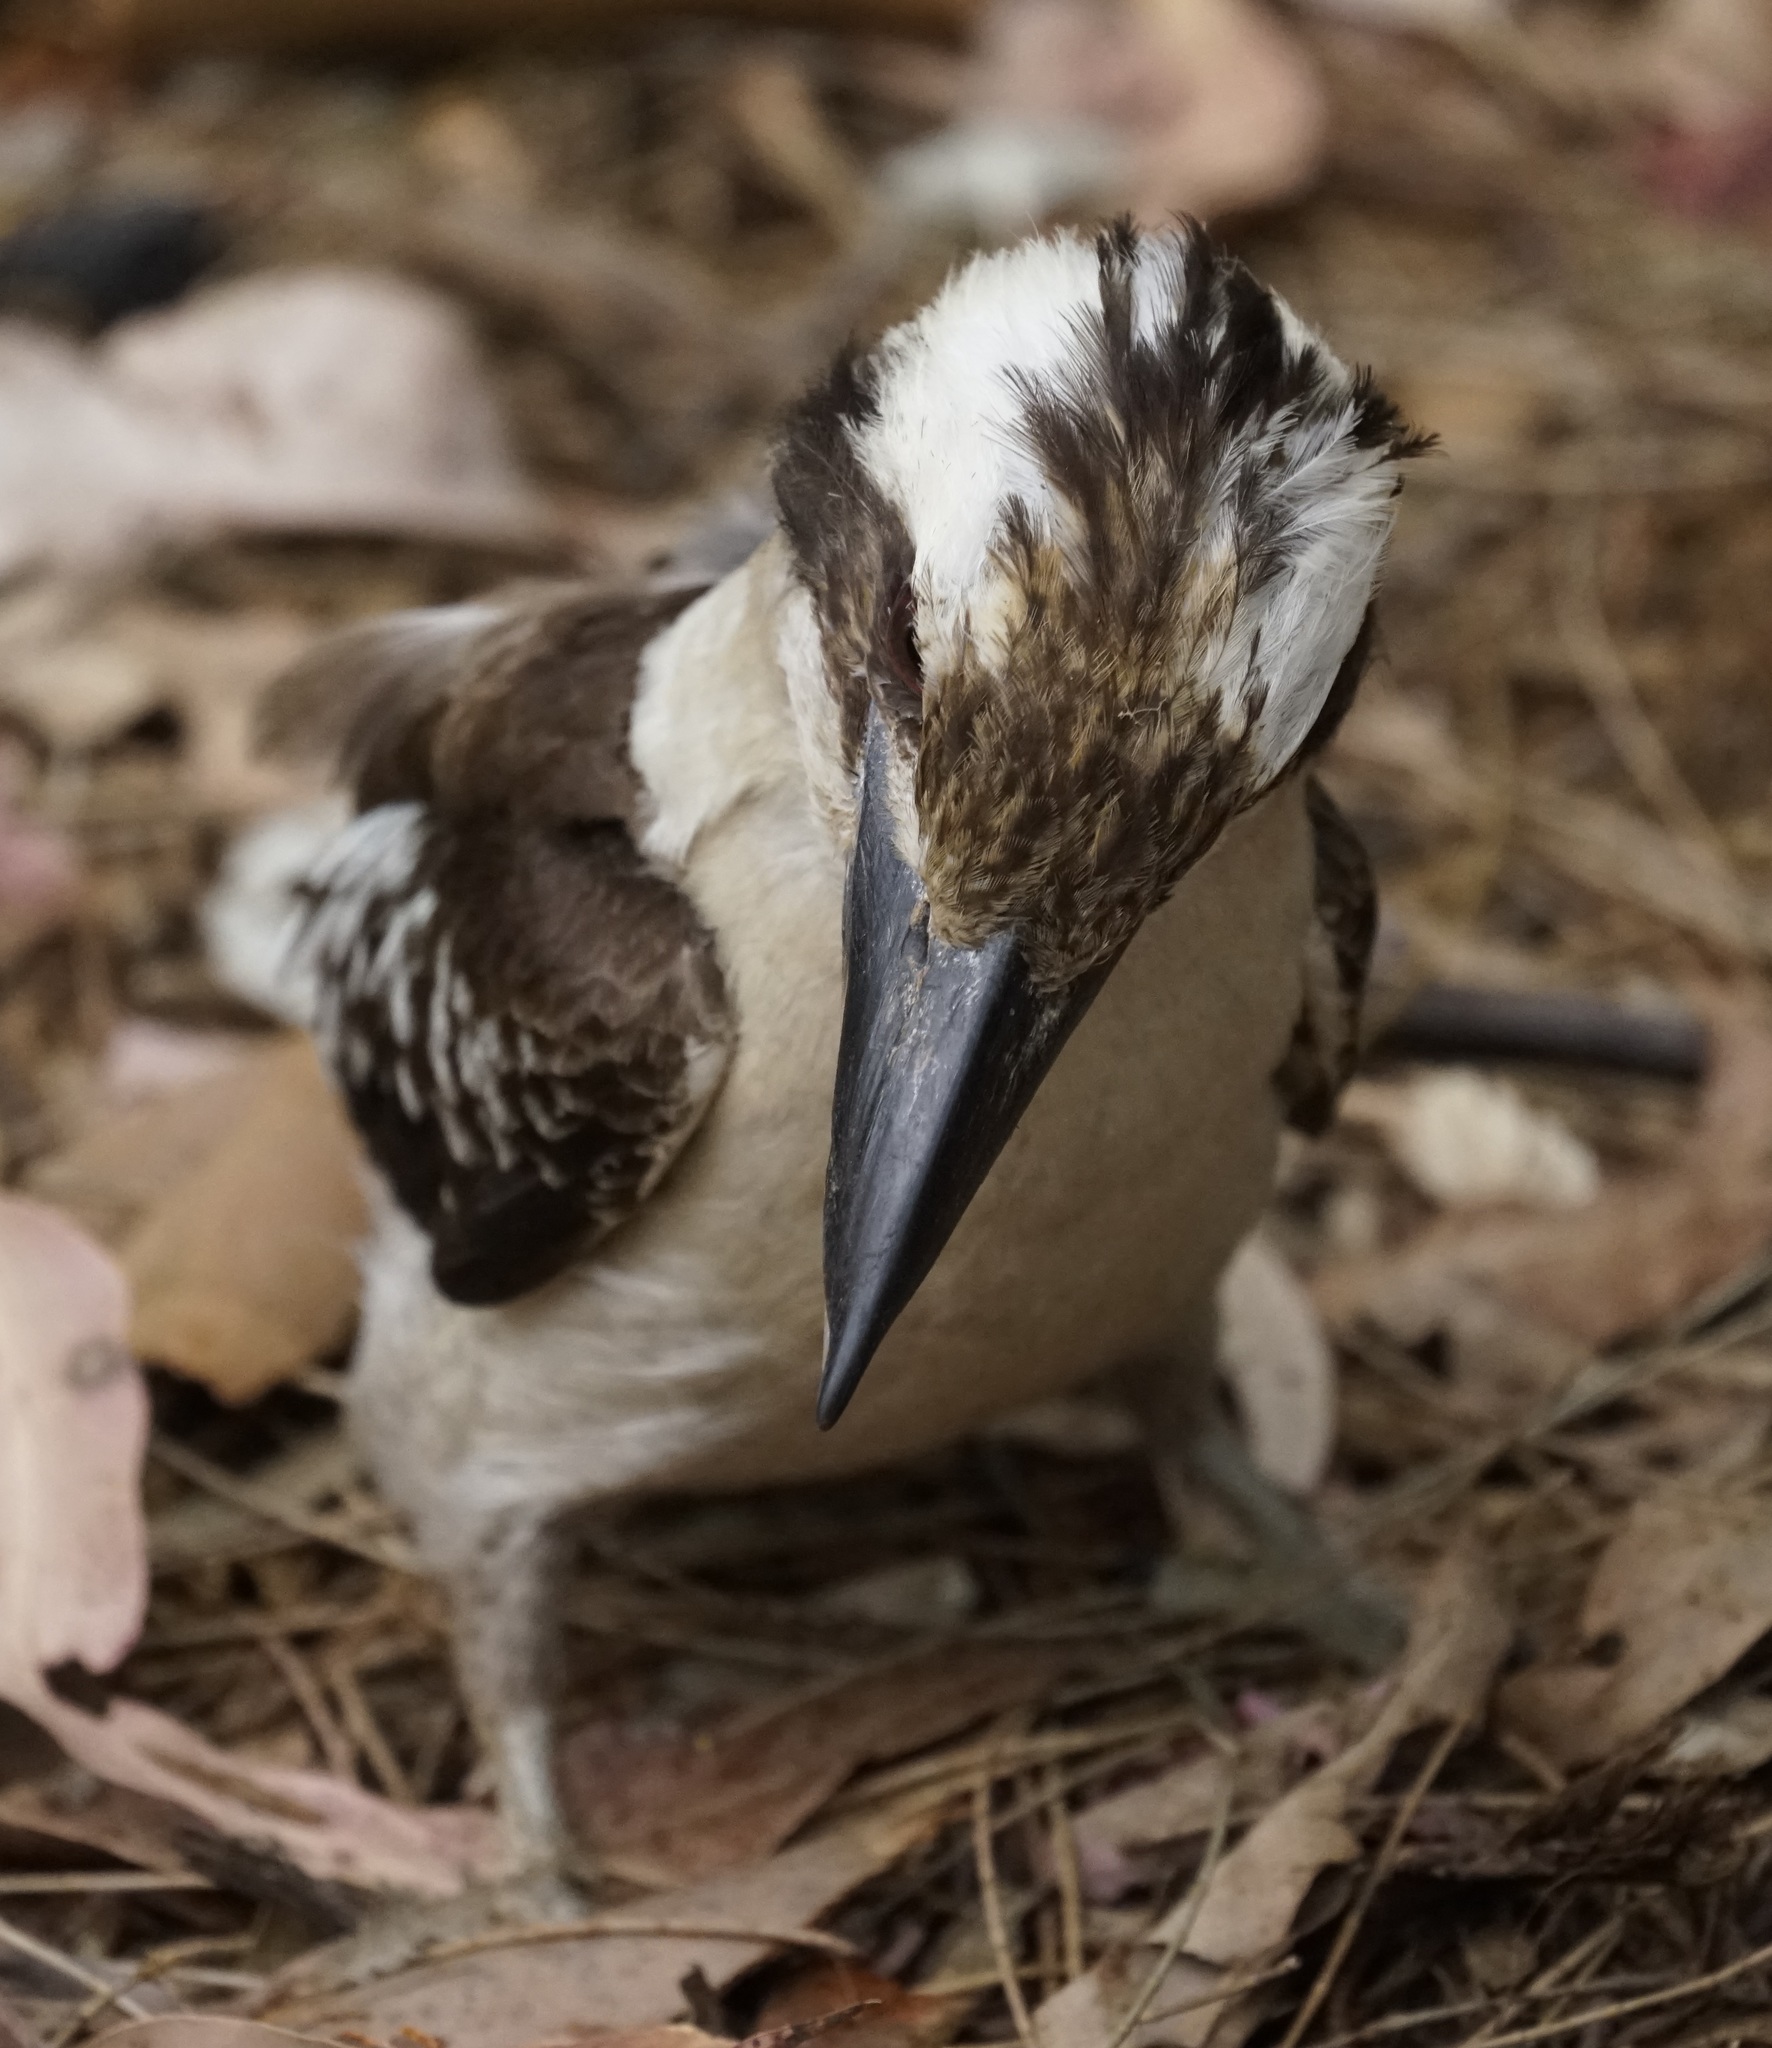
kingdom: Animalia
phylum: Chordata
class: Aves
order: Coraciiformes
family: Alcedinidae
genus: Dacelo
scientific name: Dacelo novaeguineae
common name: Laughing kookaburra
